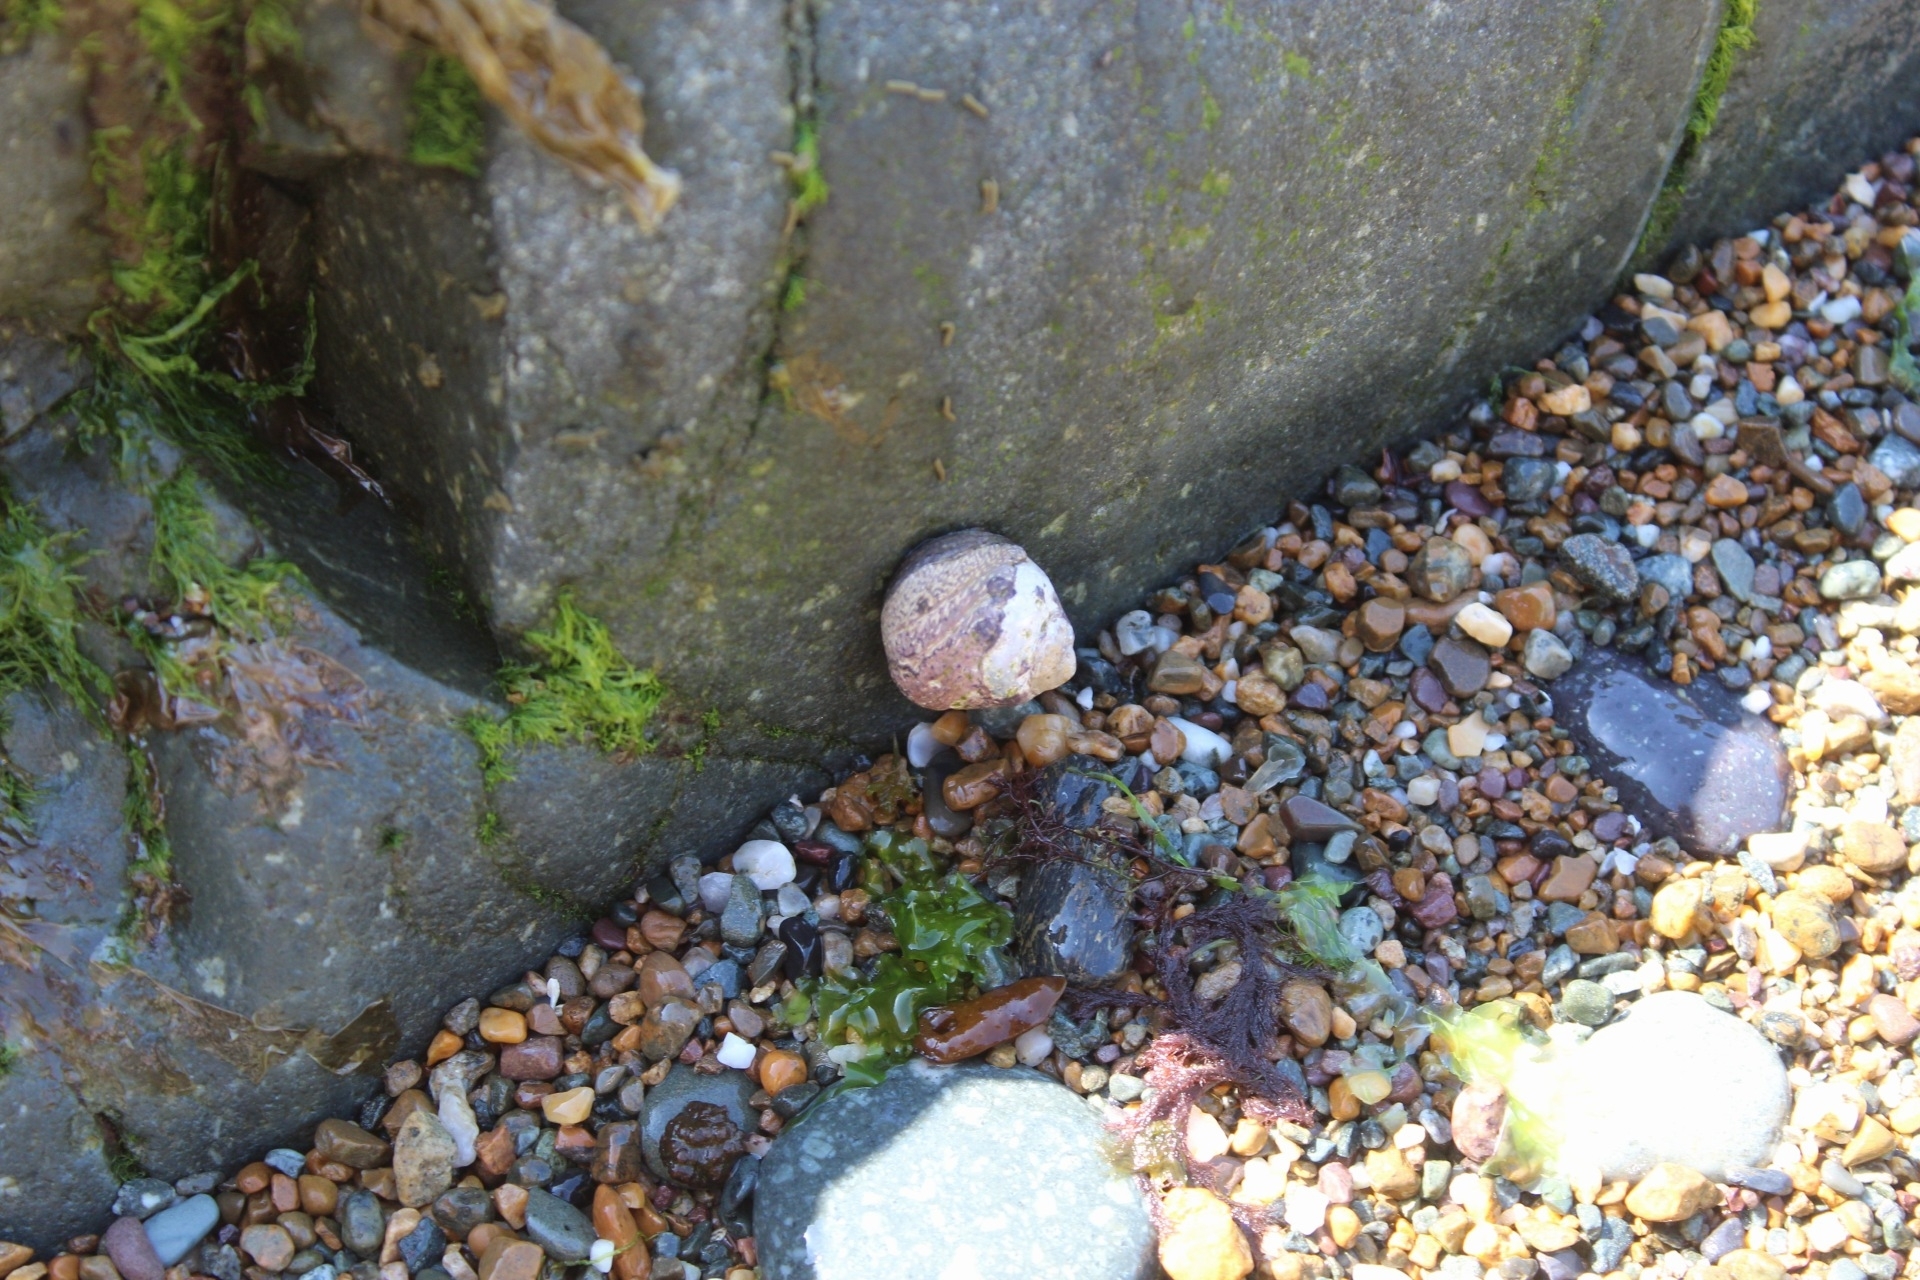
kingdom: Animalia
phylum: Mollusca
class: Gastropoda
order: Trochida
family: Trochidae
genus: Phorcus
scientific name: Phorcus lineatus
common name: Toothed top shell
